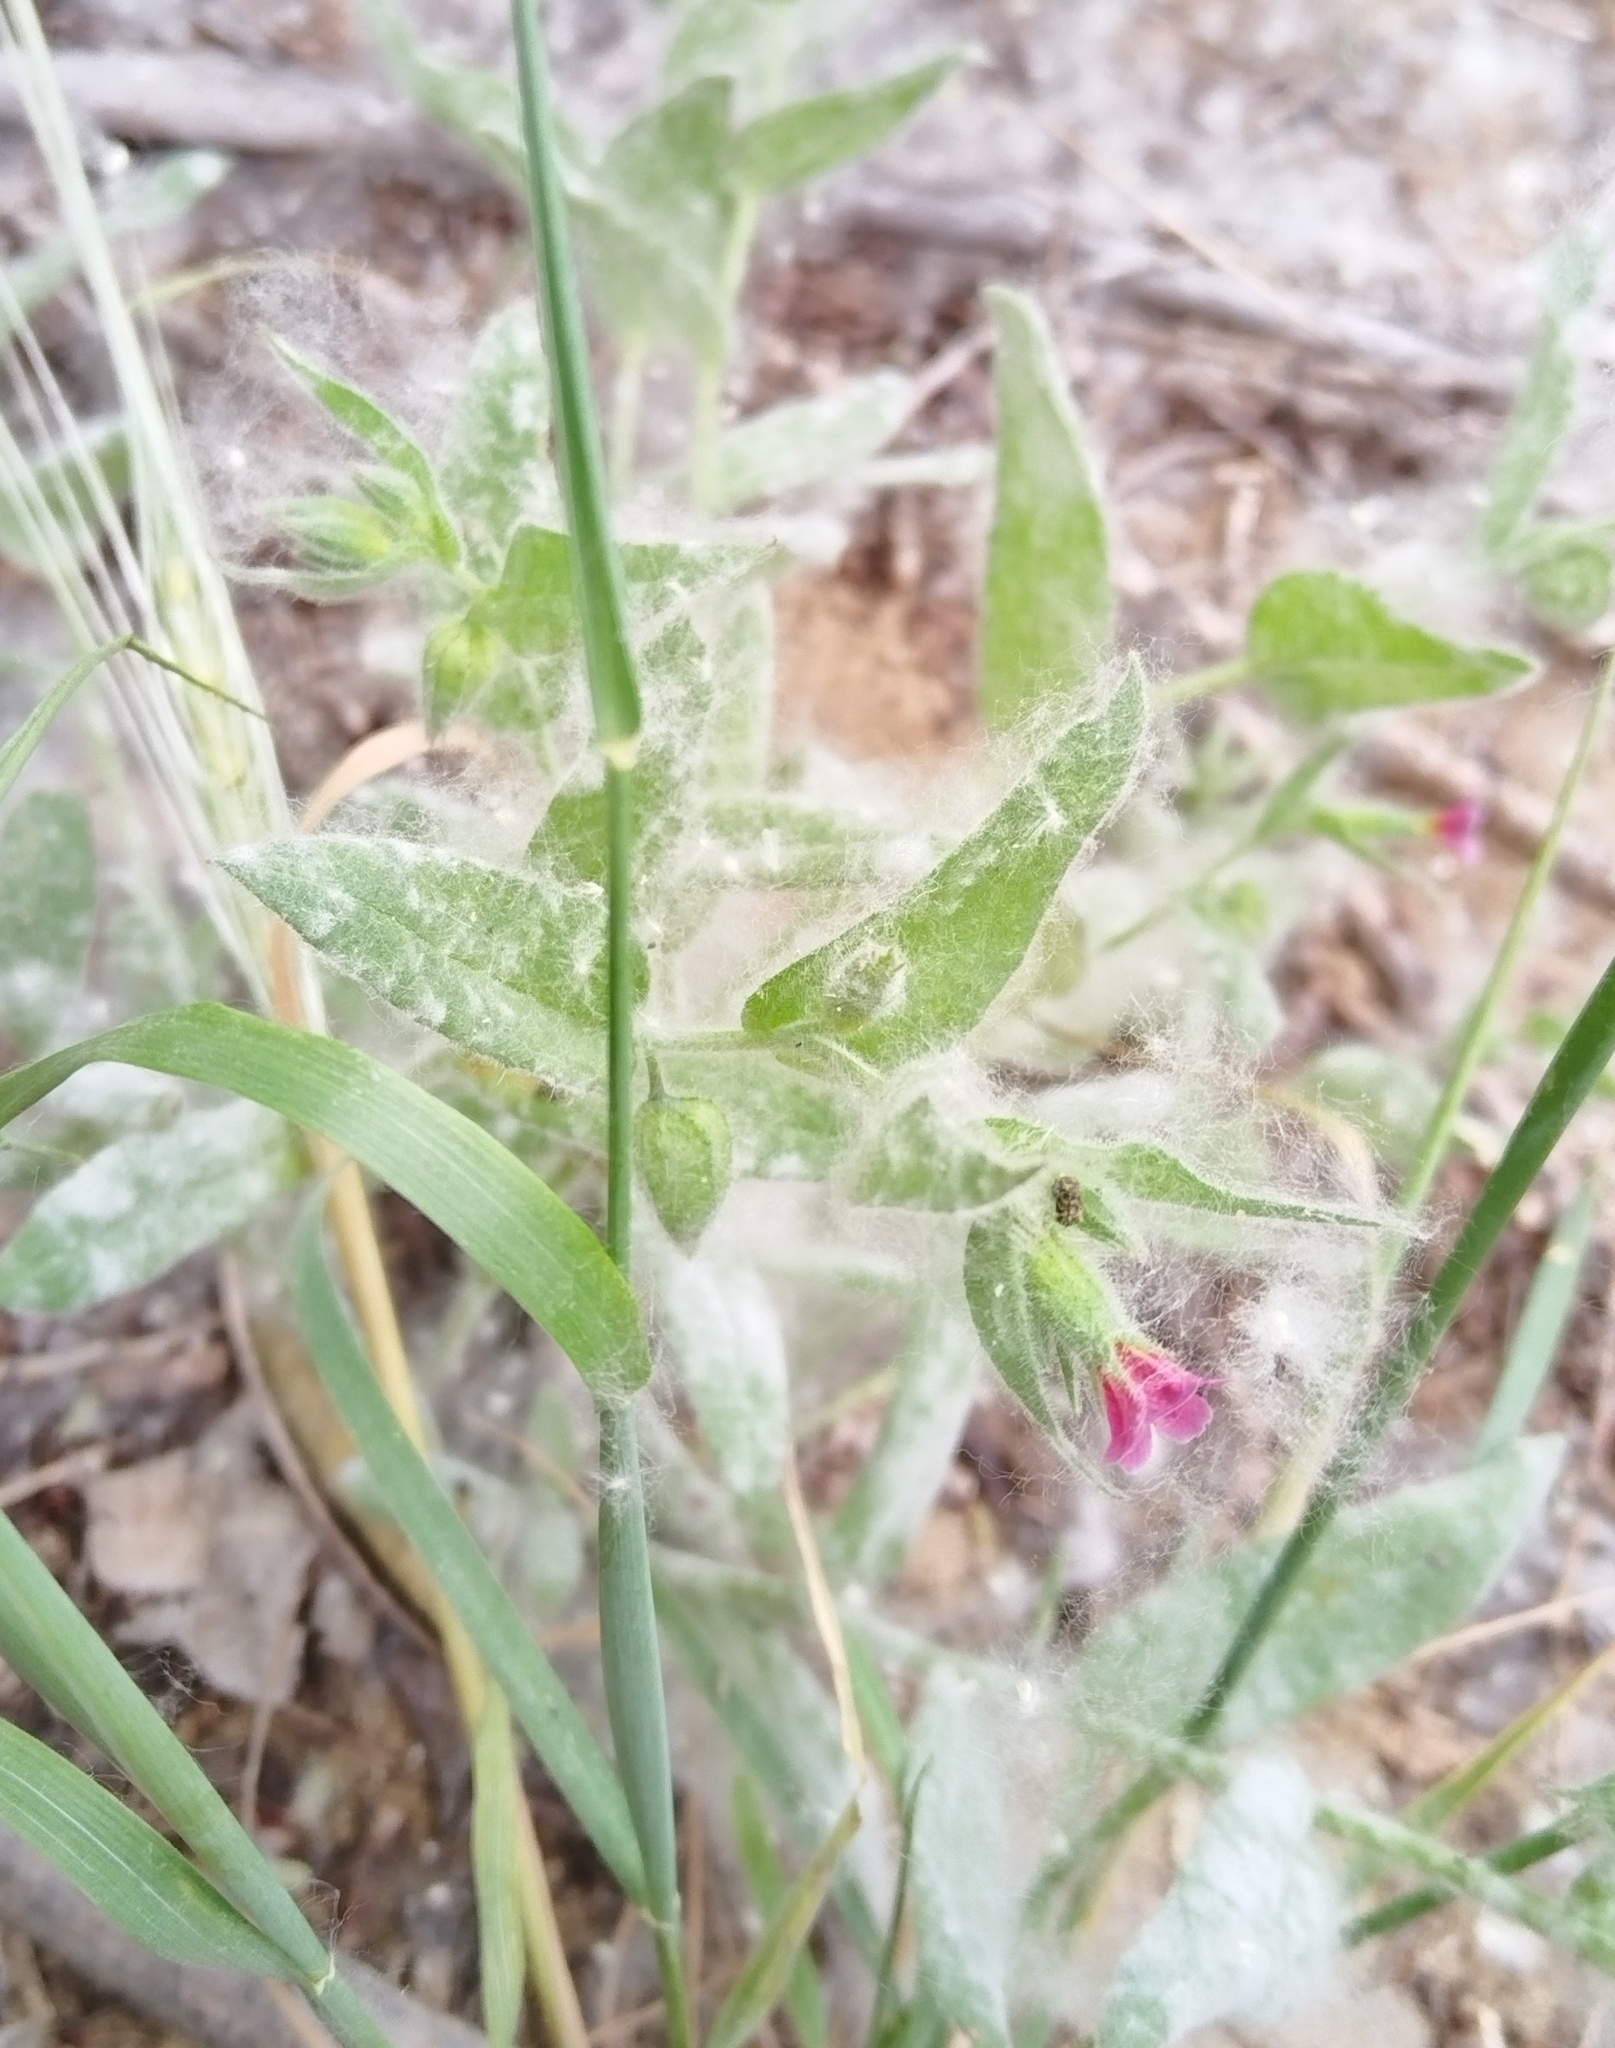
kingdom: Plantae
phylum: Tracheophyta
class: Magnoliopsida
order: Boraginales
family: Boraginaceae
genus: Nonea
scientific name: Nonea pulla
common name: Brown nonea
